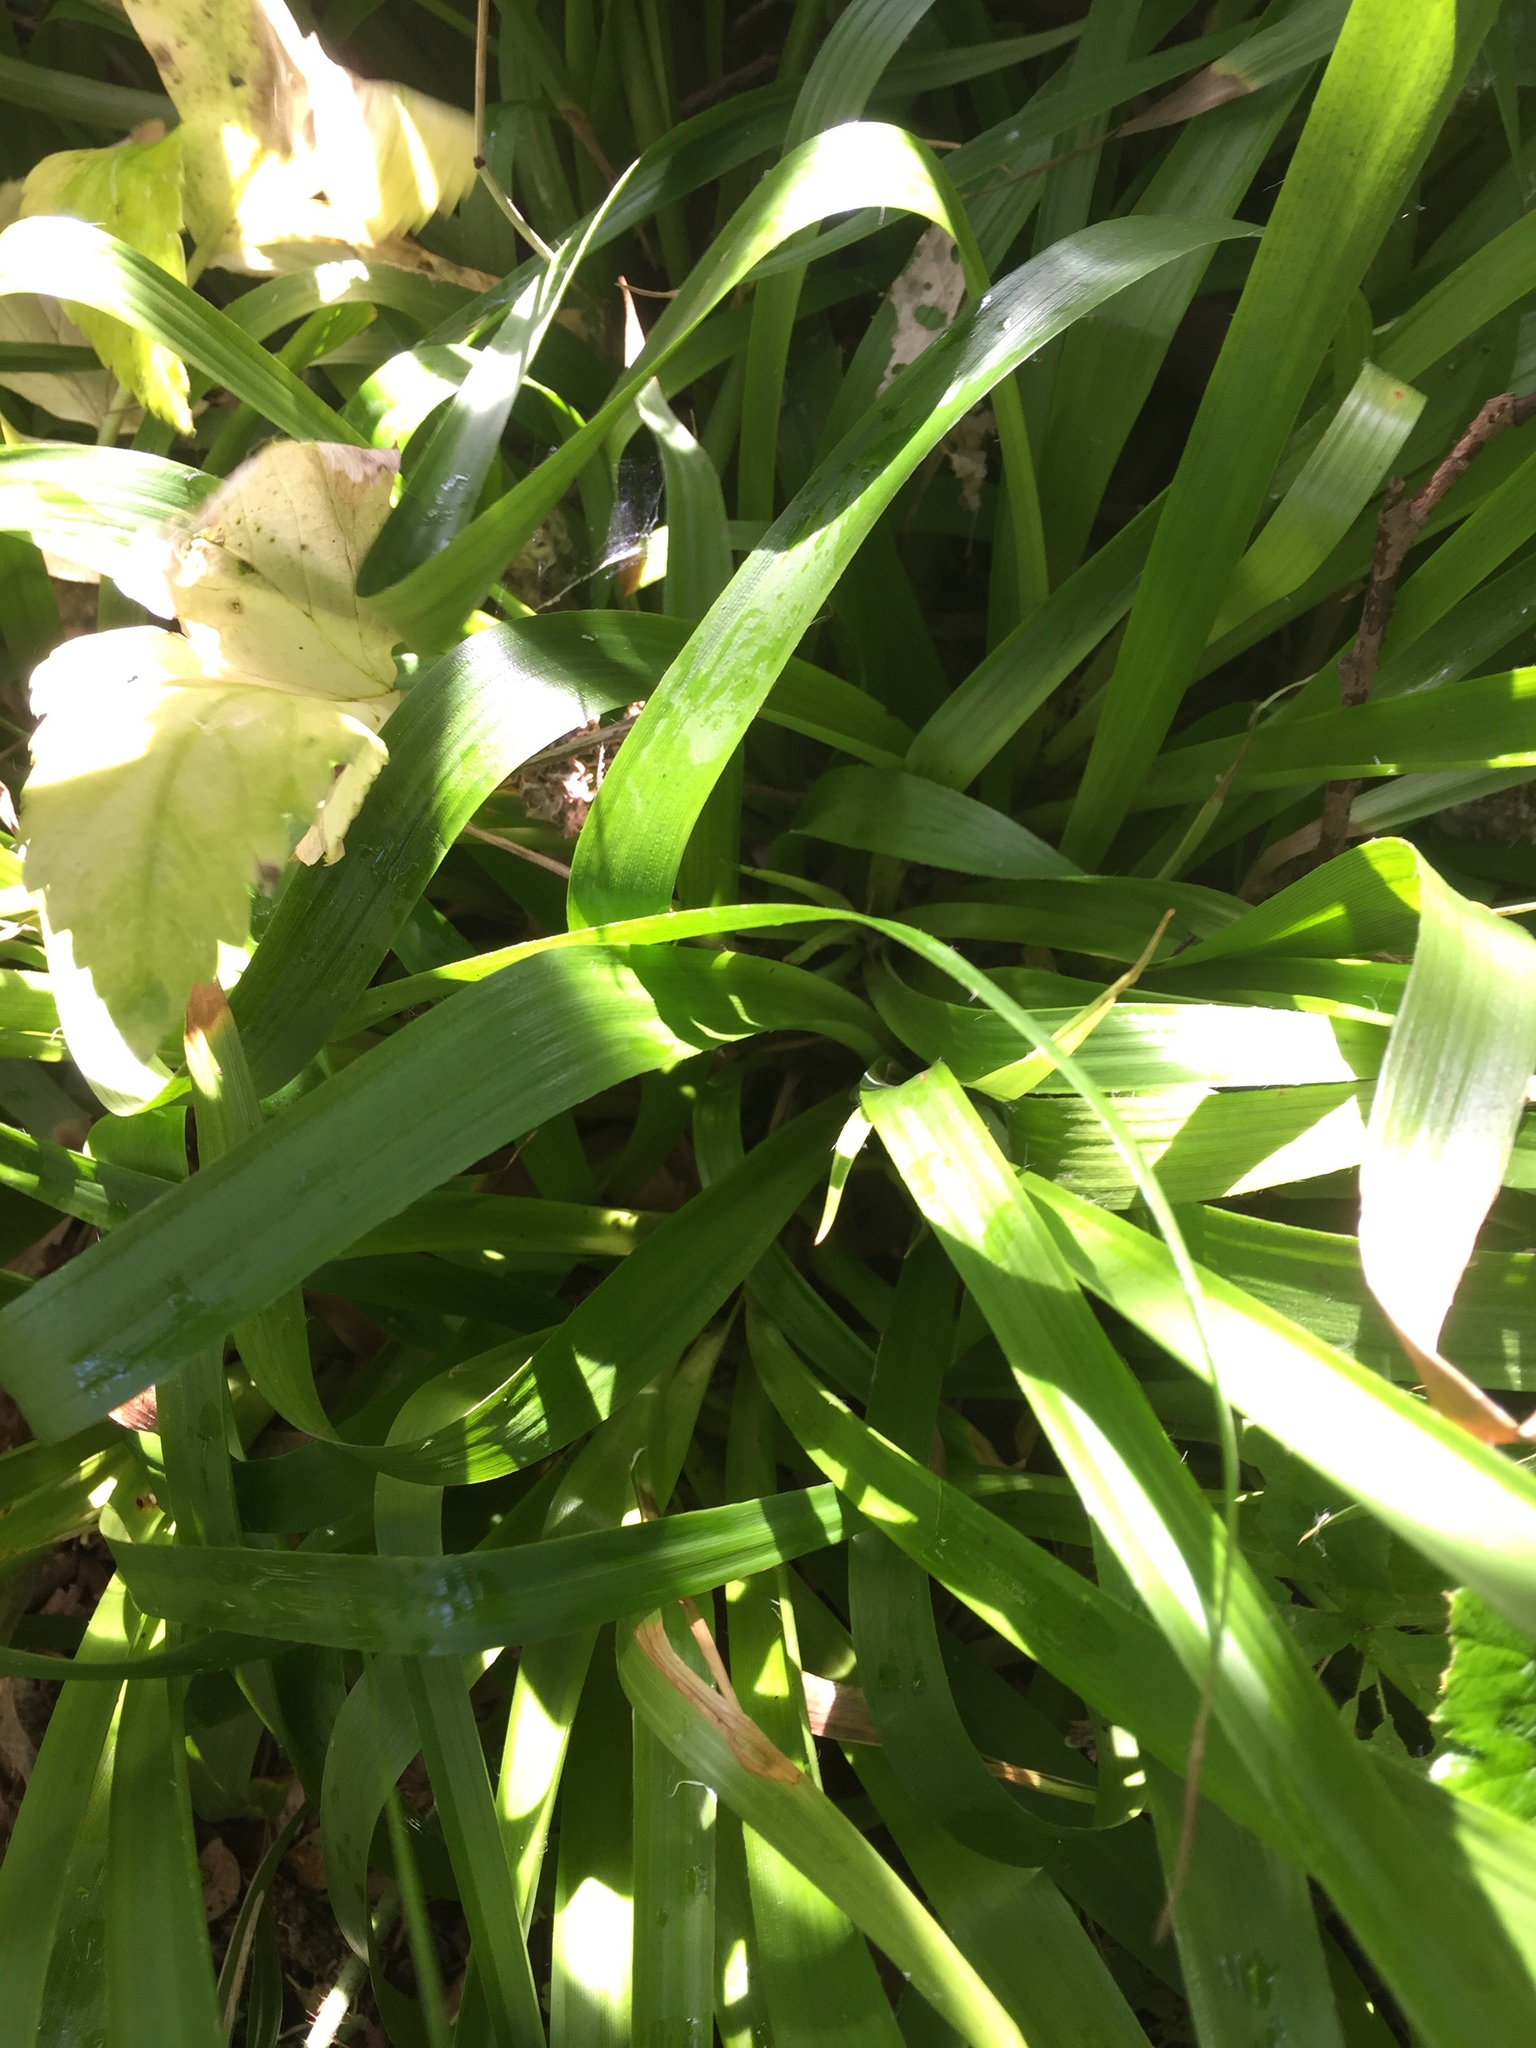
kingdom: Plantae
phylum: Tracheophyta
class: Liliopsida
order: Asparagales
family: Iridaceae
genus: Iris
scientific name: Iris foetidissima
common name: Stinking iris
